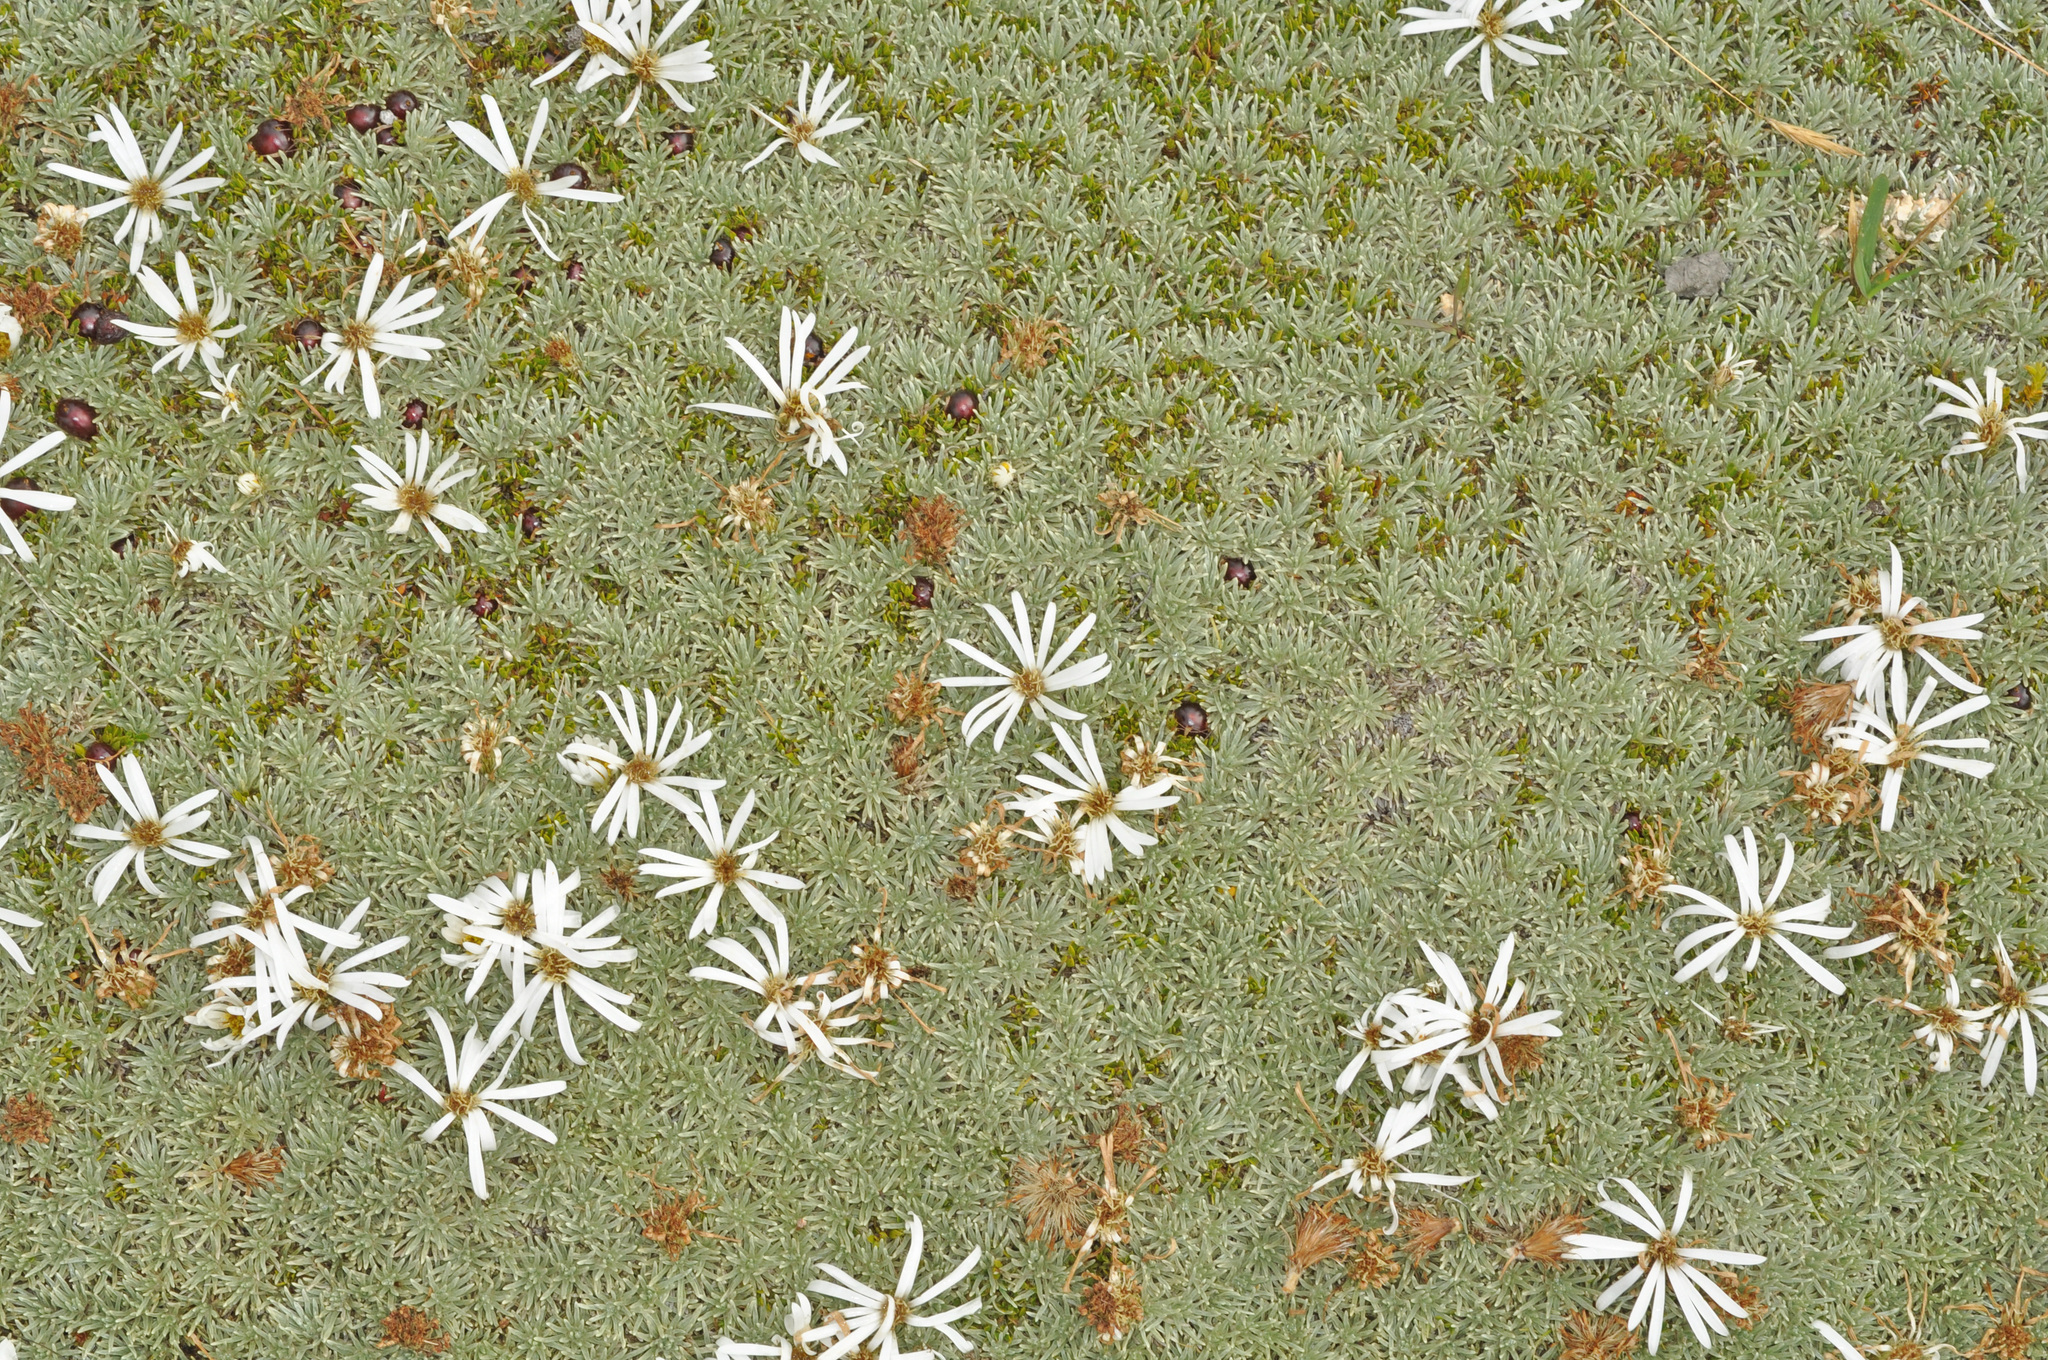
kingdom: Plantae
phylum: Tracheophyta
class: Magnoliopsida
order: Asterales
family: Asteraceae
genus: Celmisia
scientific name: Celmisia sessiliflora
